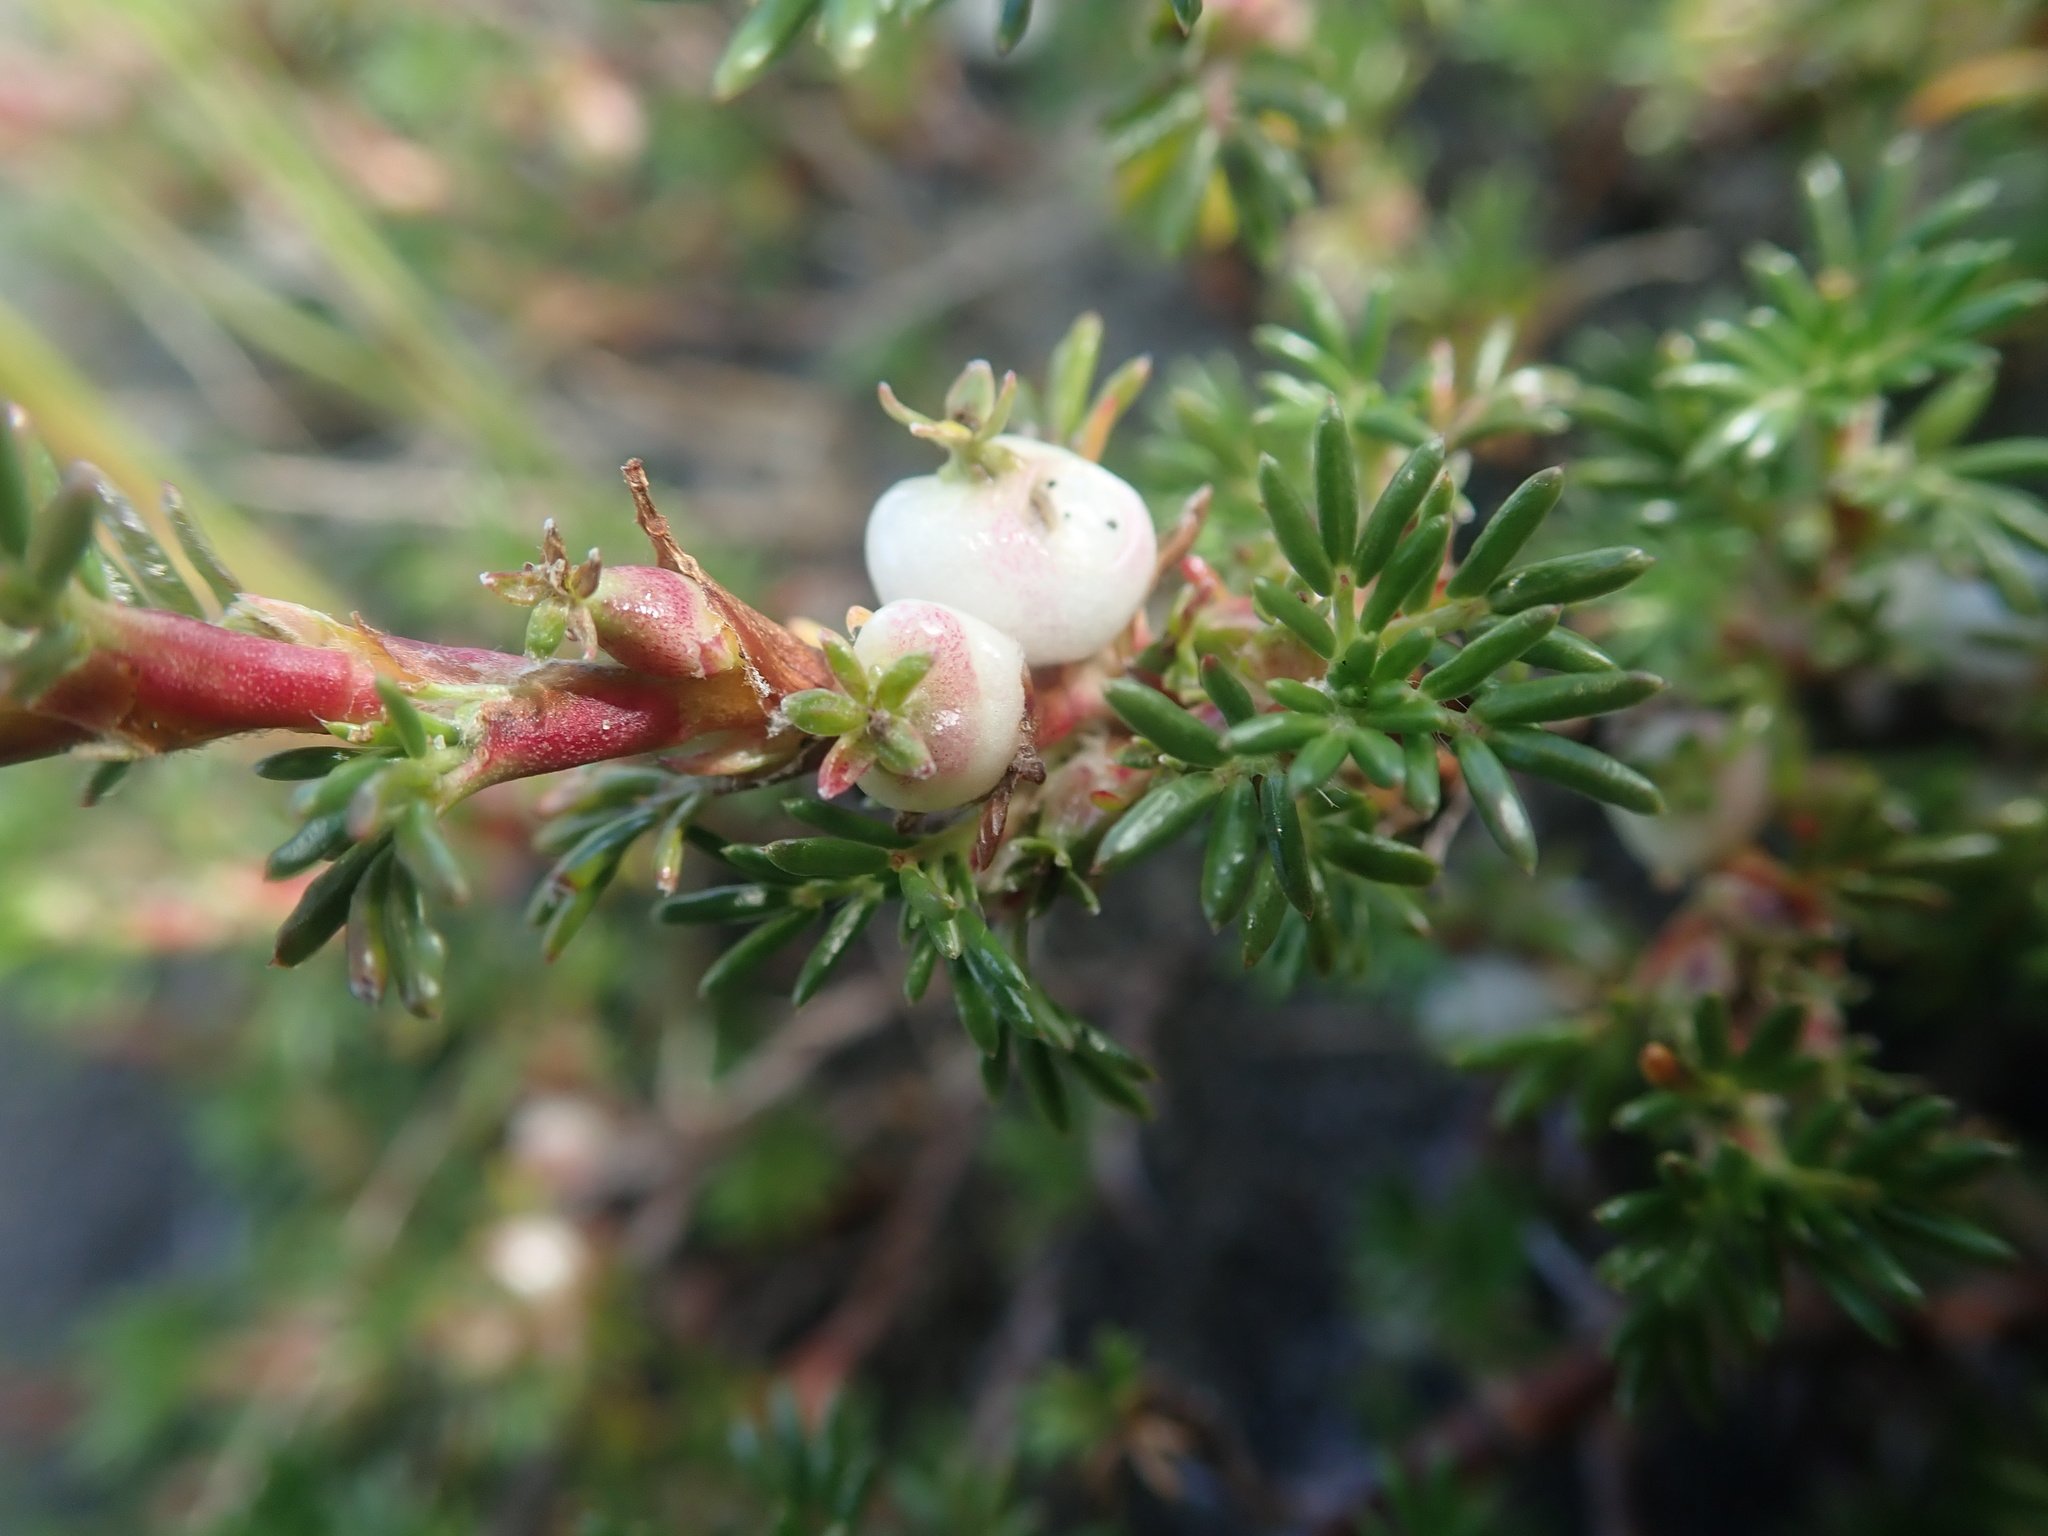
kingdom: Plantae
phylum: Tracheophyta
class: Magnoliopsida
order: Rosales
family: Rosaceae
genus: Margyricarpus
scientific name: Margyricarpus pinnatus
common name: Pearlfruit
